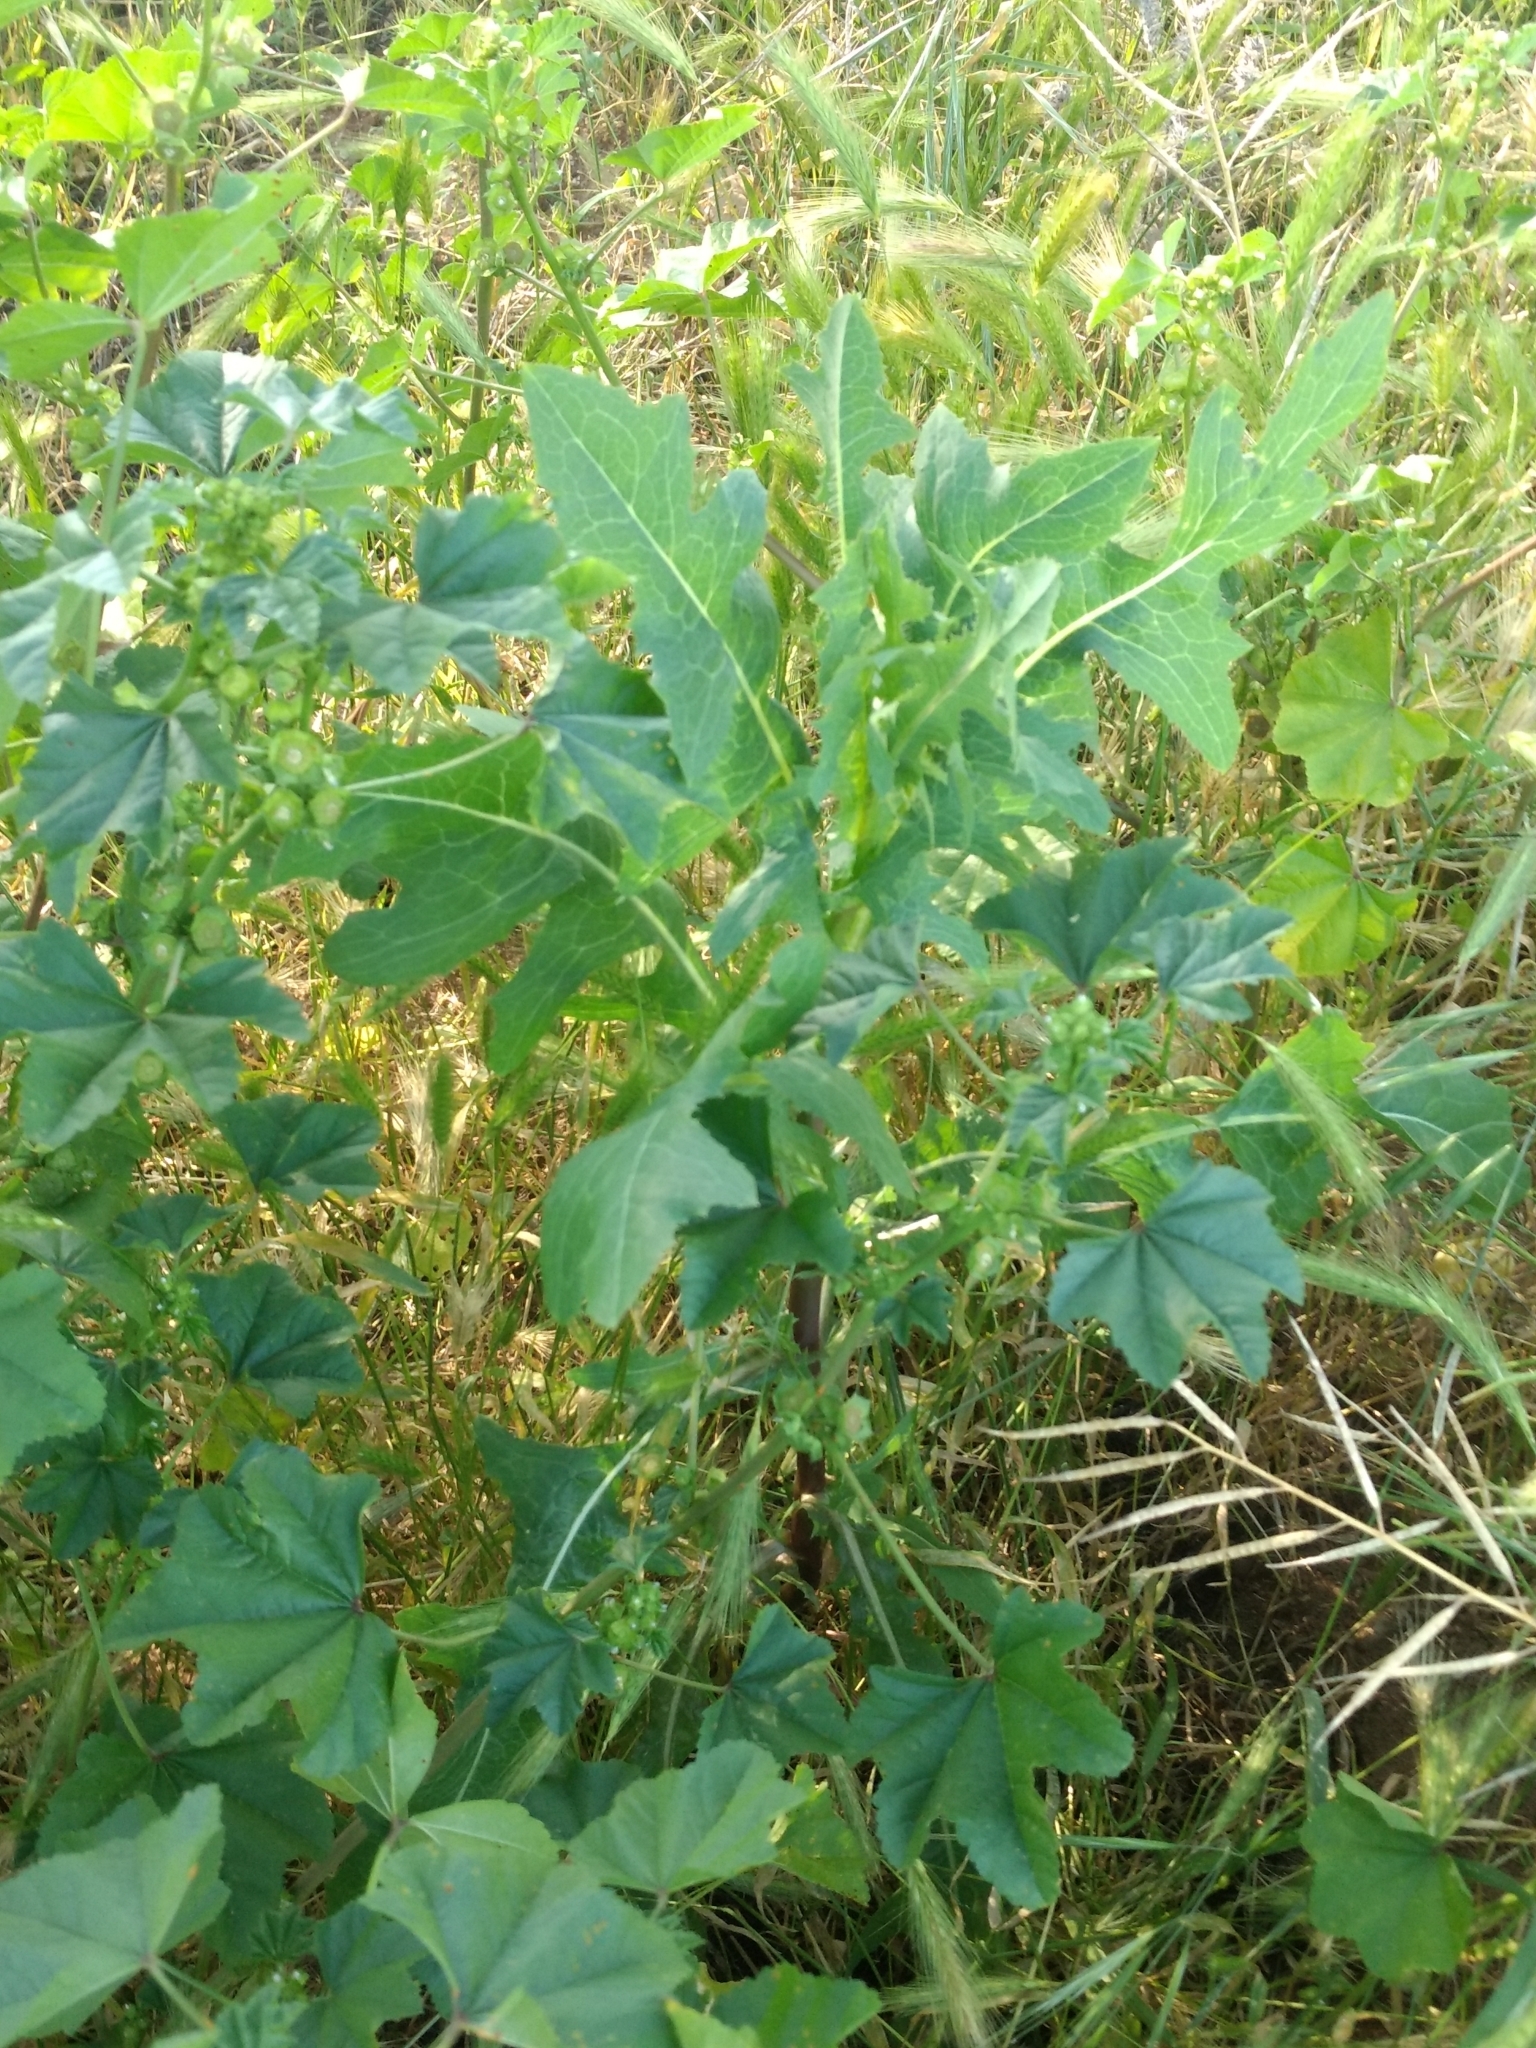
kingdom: Plantae
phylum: Tracheophyta
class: Magnoliopsida
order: Asterales
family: Asteraceae
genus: Lactuca
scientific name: Lactuca serriola
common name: Prickly lettuce
